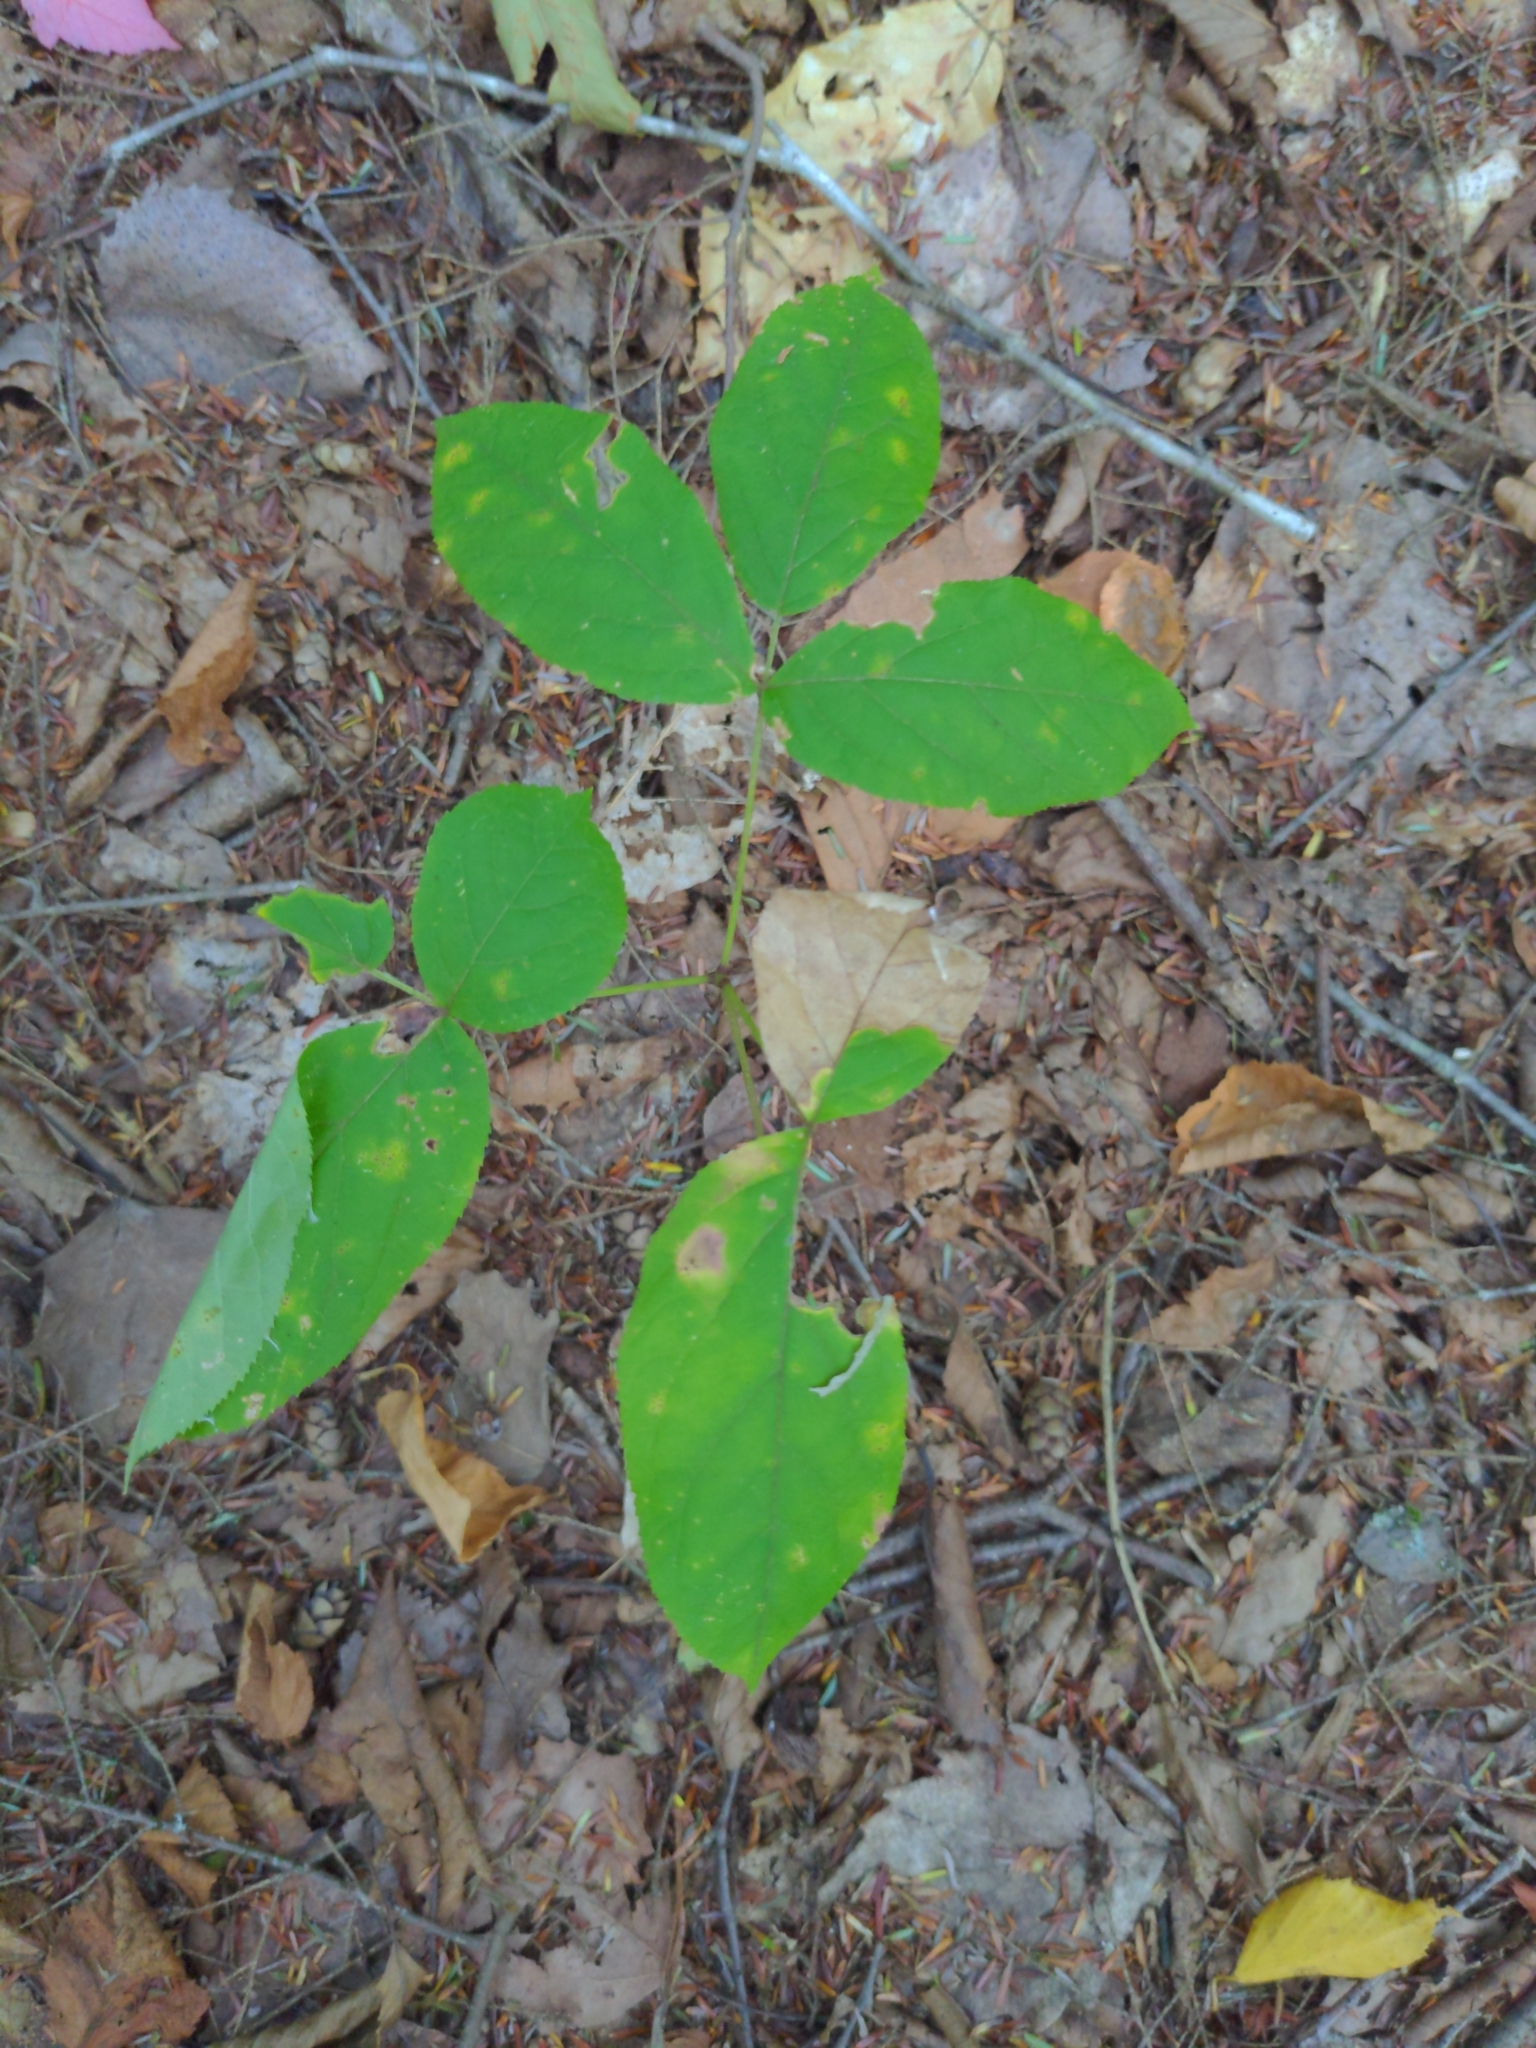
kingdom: Plantae
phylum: Tracheophyta
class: Magnoliopsida
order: Apiales
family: Araliaceae
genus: Aralia
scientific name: Aralia nudicaulis
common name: Wild sarsaparilla
